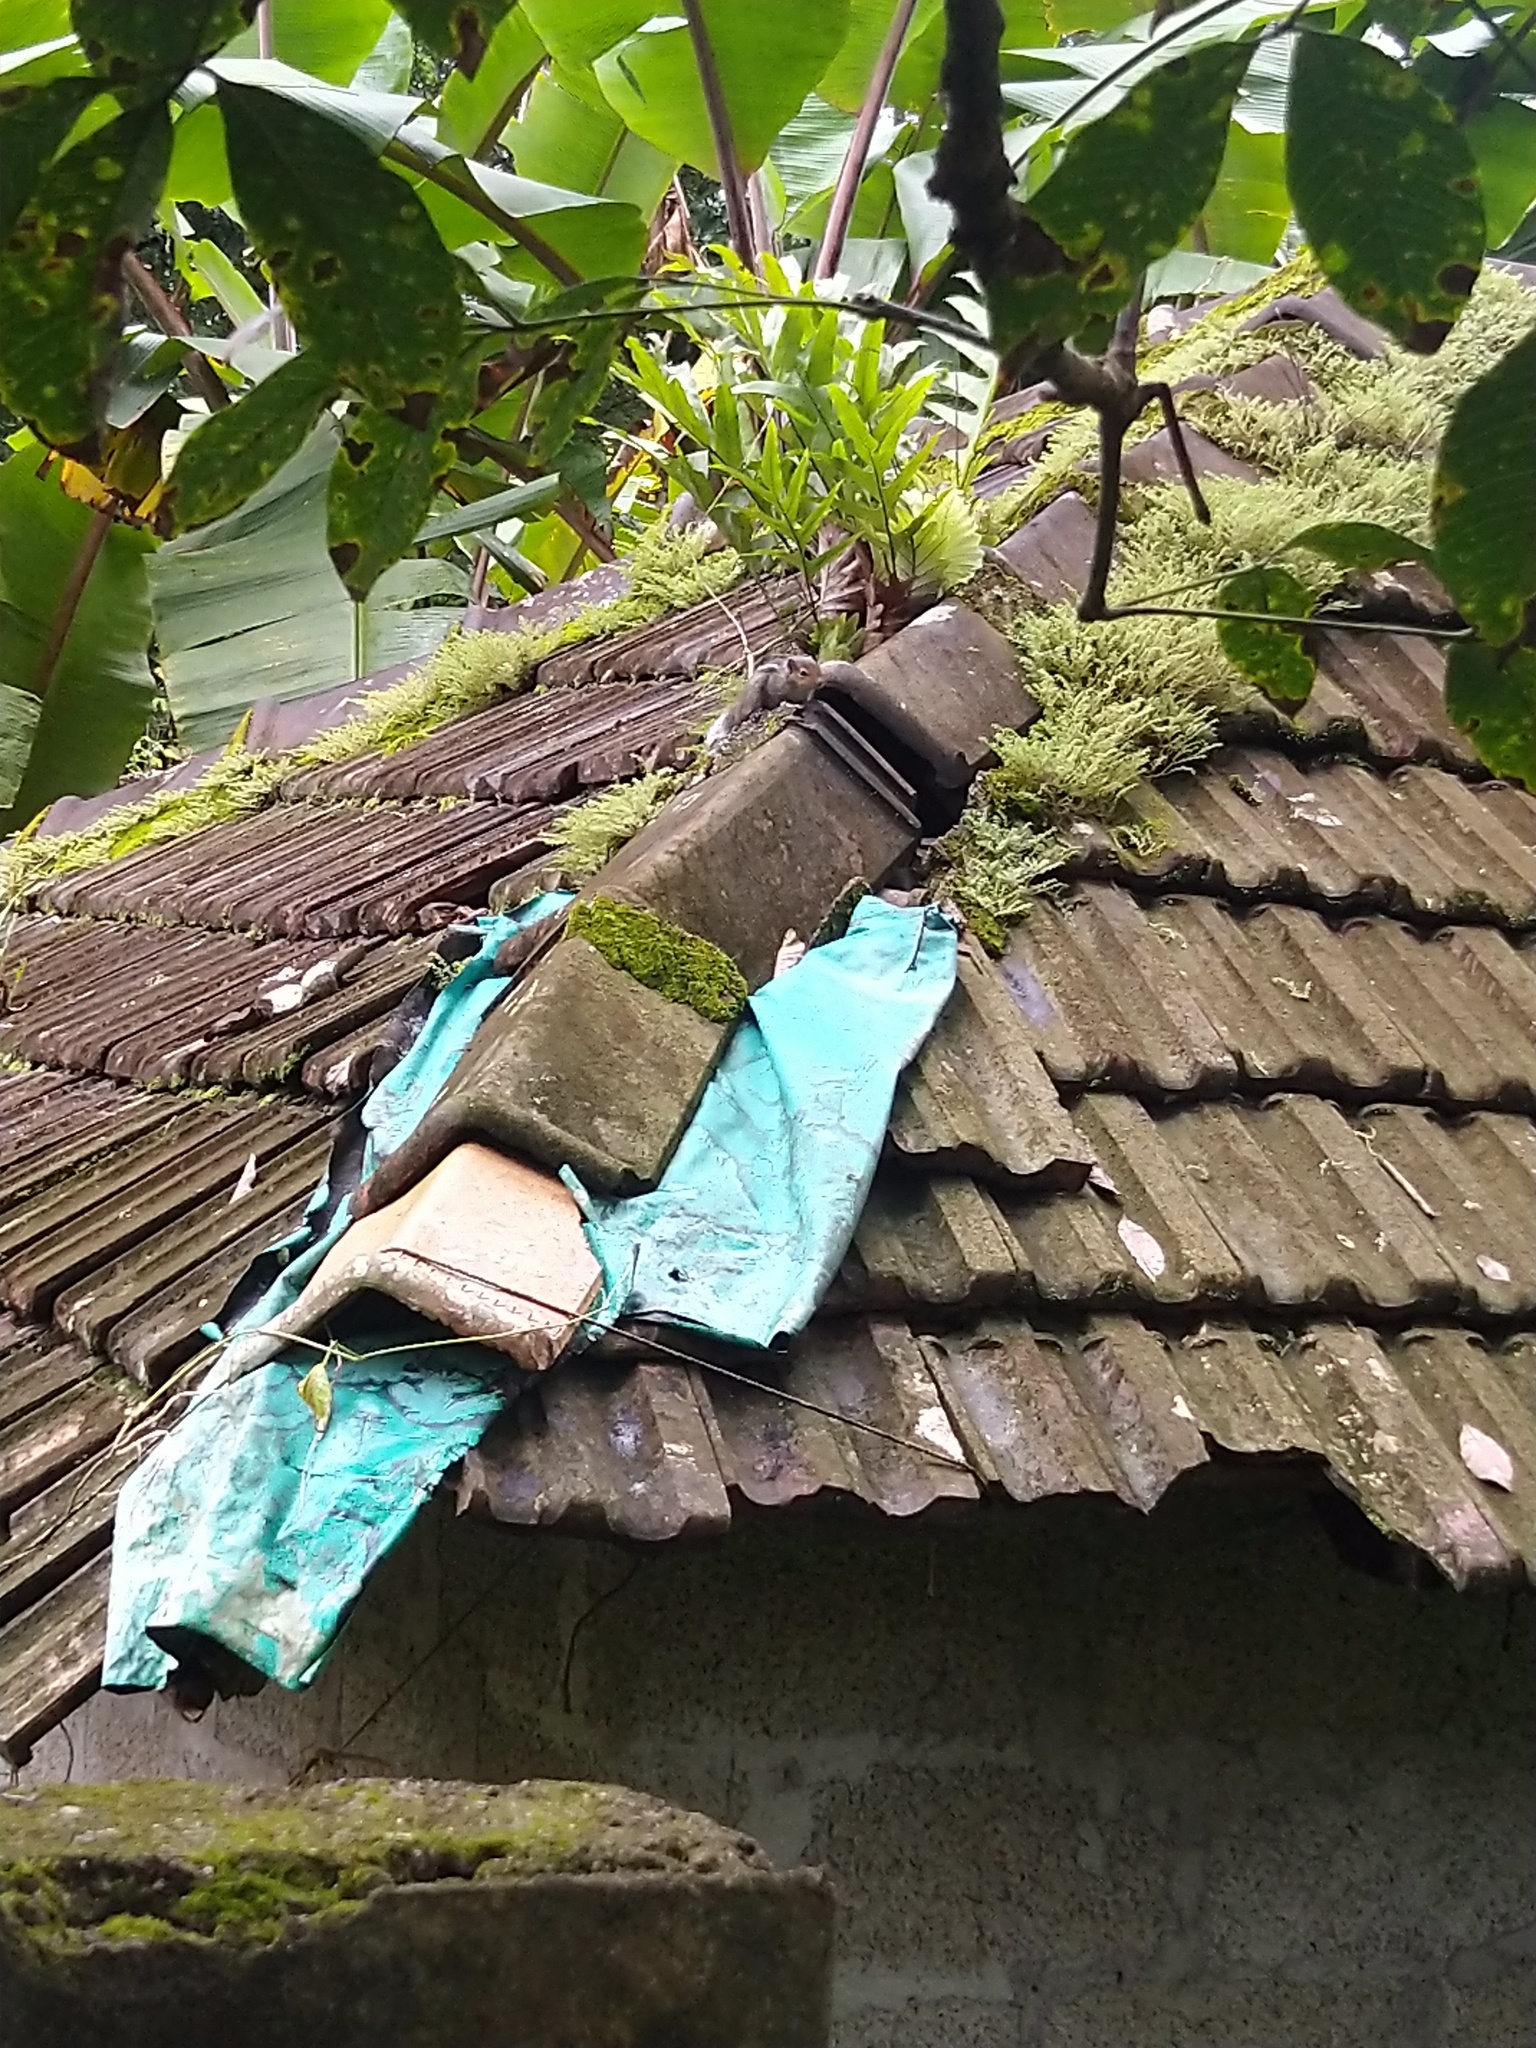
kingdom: Animalia
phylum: Chordata
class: Mammalia
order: Rodentia
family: Sciuridae
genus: Funambulus
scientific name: Funambulus tristriatus
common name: Jungle palm squirrel
